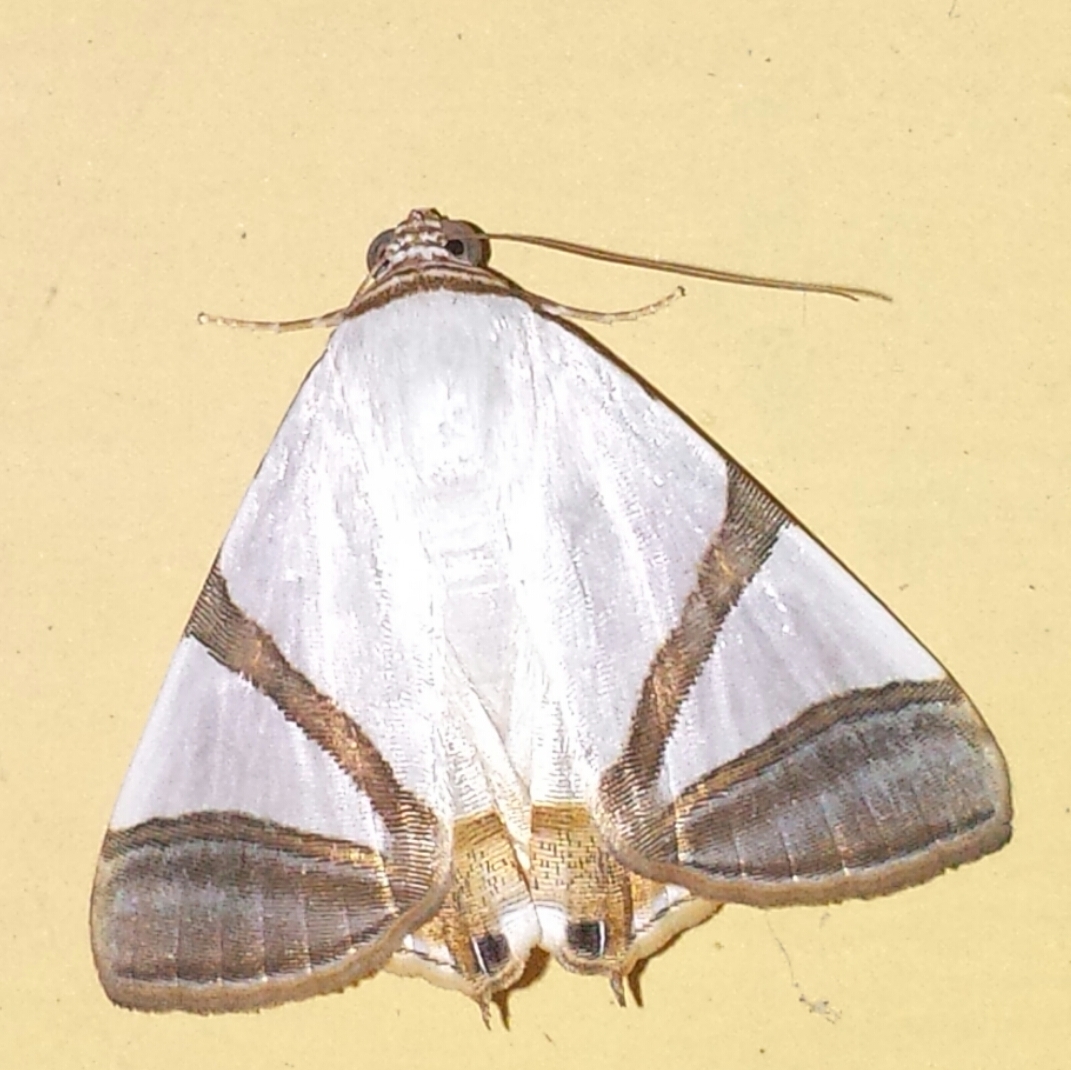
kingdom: Animalia
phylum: Arthropoda
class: Insecta
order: Lepidoptera
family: Erebidae
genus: Eulepidotis
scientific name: Eulepidotis persimilis
